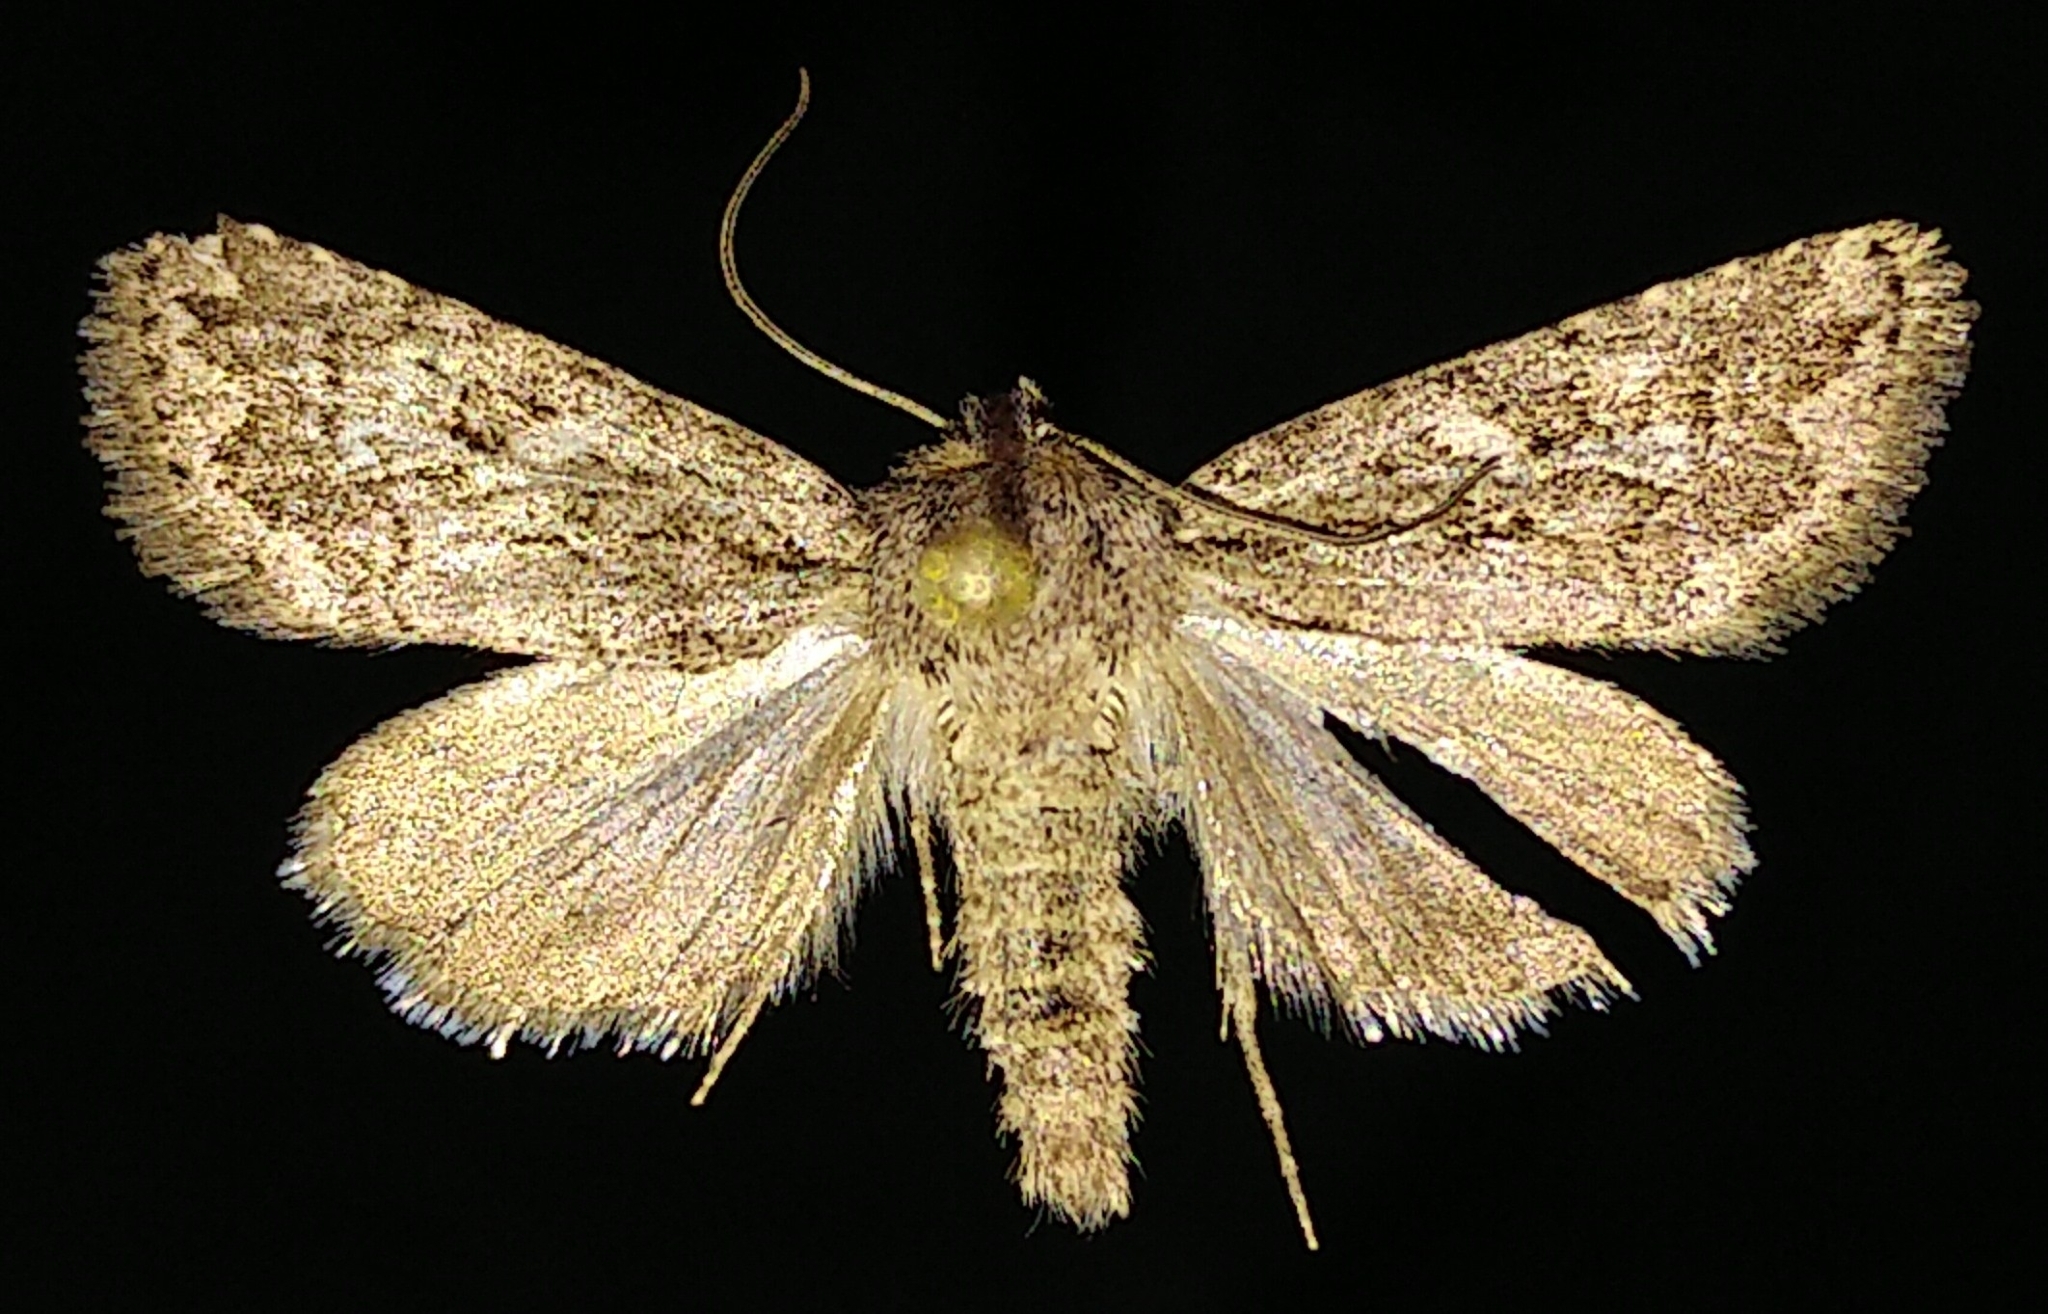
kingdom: Animalia
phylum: Arthropoda
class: Insecta
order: Lepidoptera
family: Noctuidae
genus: Ulolonche
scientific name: Ulolonche orbiculata
